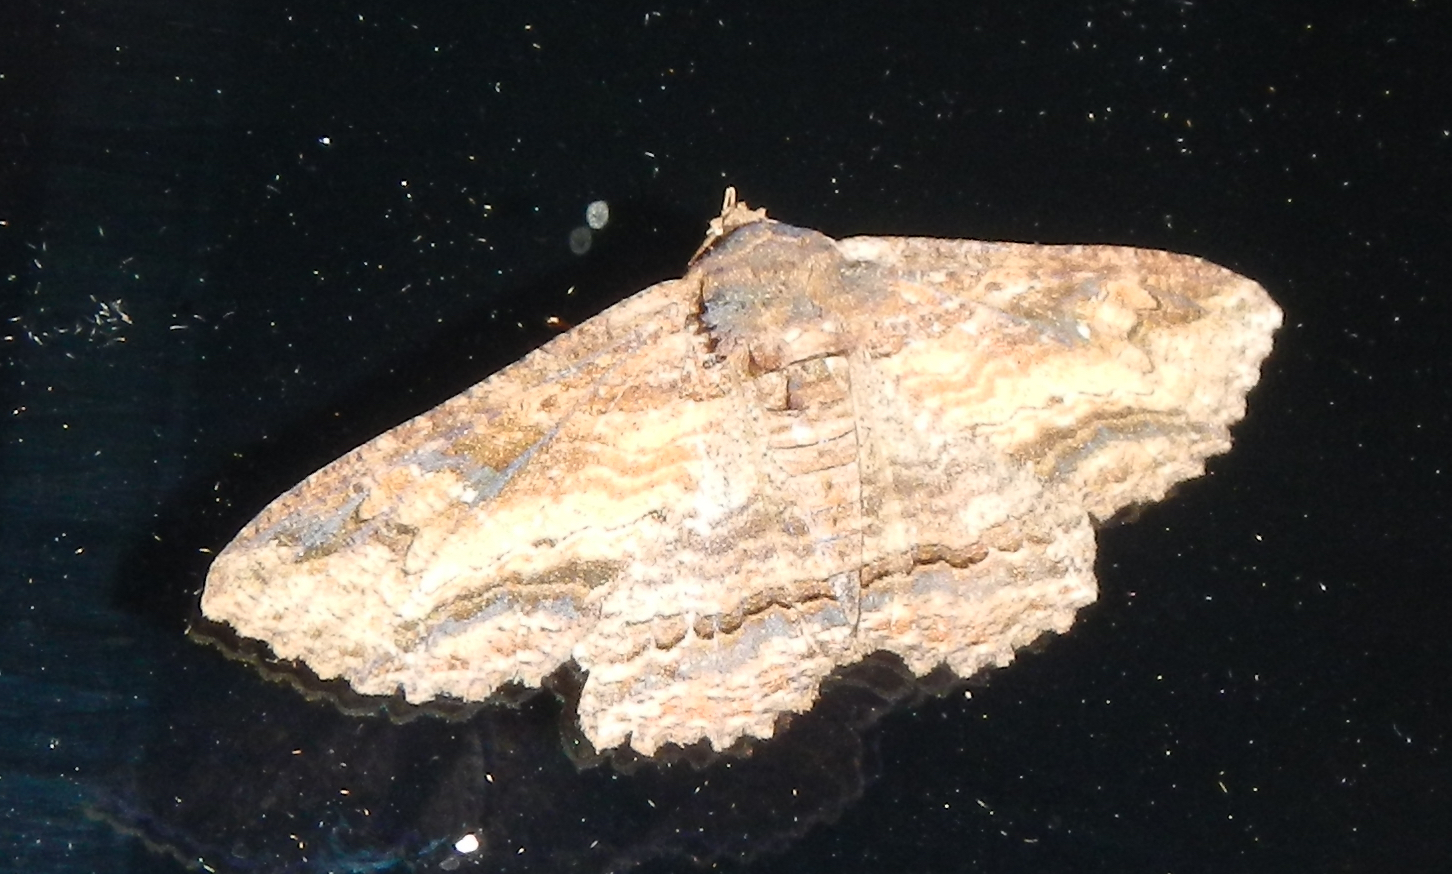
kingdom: Animalia
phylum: Arthropoda
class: Insecta
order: Lepidoptera
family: Erebidae
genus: Zale
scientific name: Zale minerea
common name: Colorful zale moth
